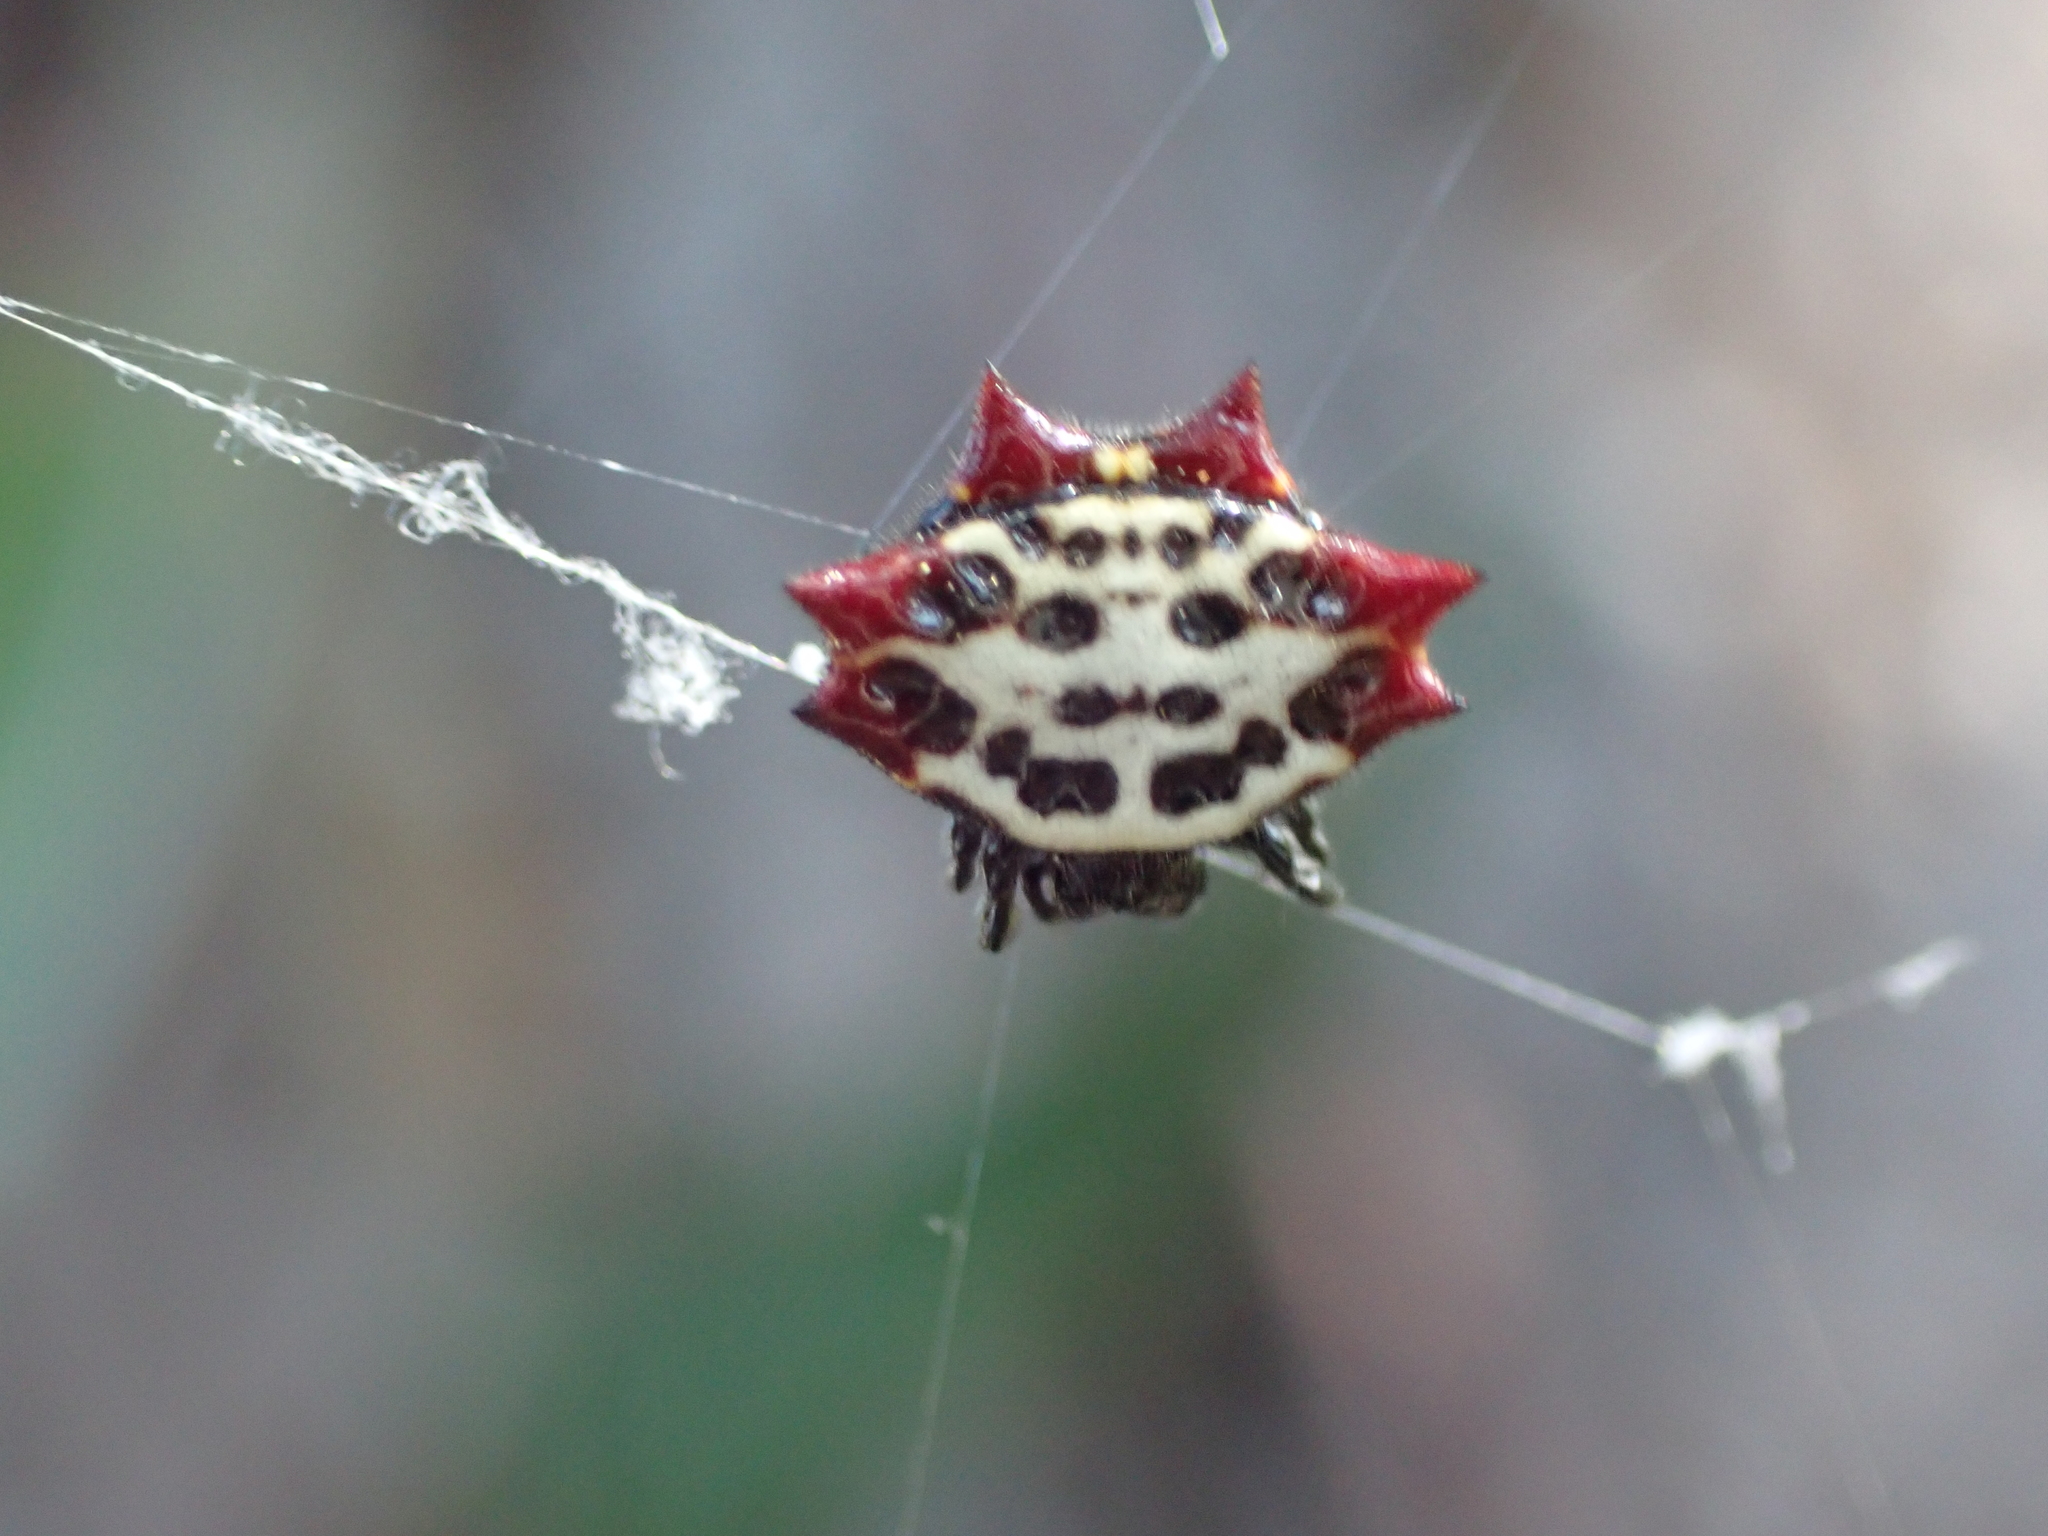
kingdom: Animalia
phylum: Arthropoda
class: Arachnida
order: Araneae
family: Araneidae
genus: Gasteracantha
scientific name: Gasteracantha cancriformis
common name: Orb weavers
